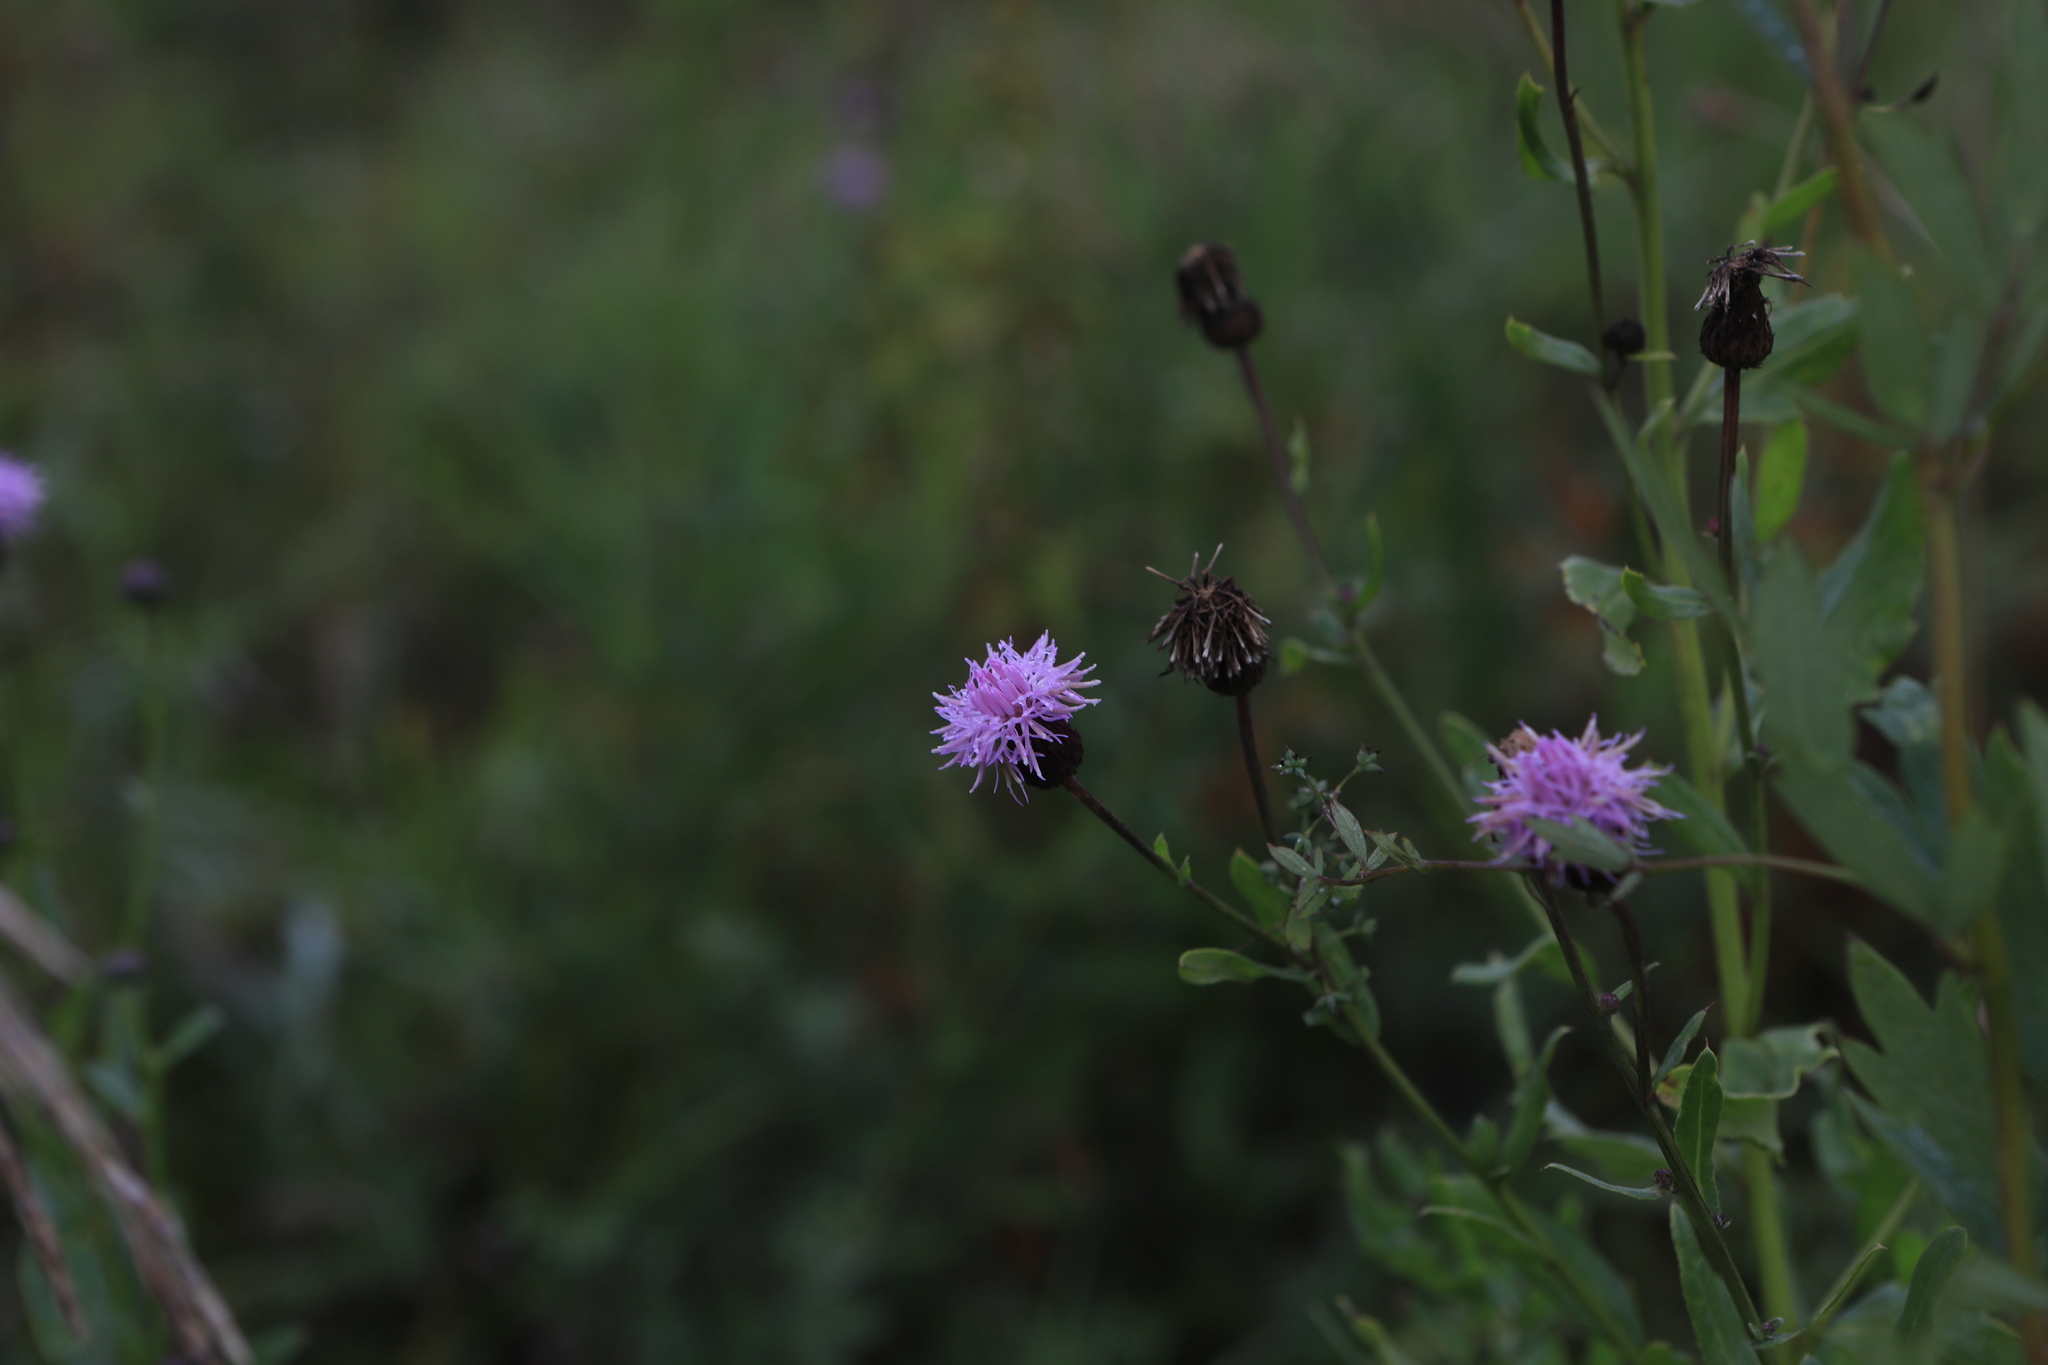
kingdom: Plantae
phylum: Tracheophyta
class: Magnoliopsida
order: Asterales
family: Asteraceae
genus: Cirsium
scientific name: Cirsium arvense
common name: Creeping thistle
